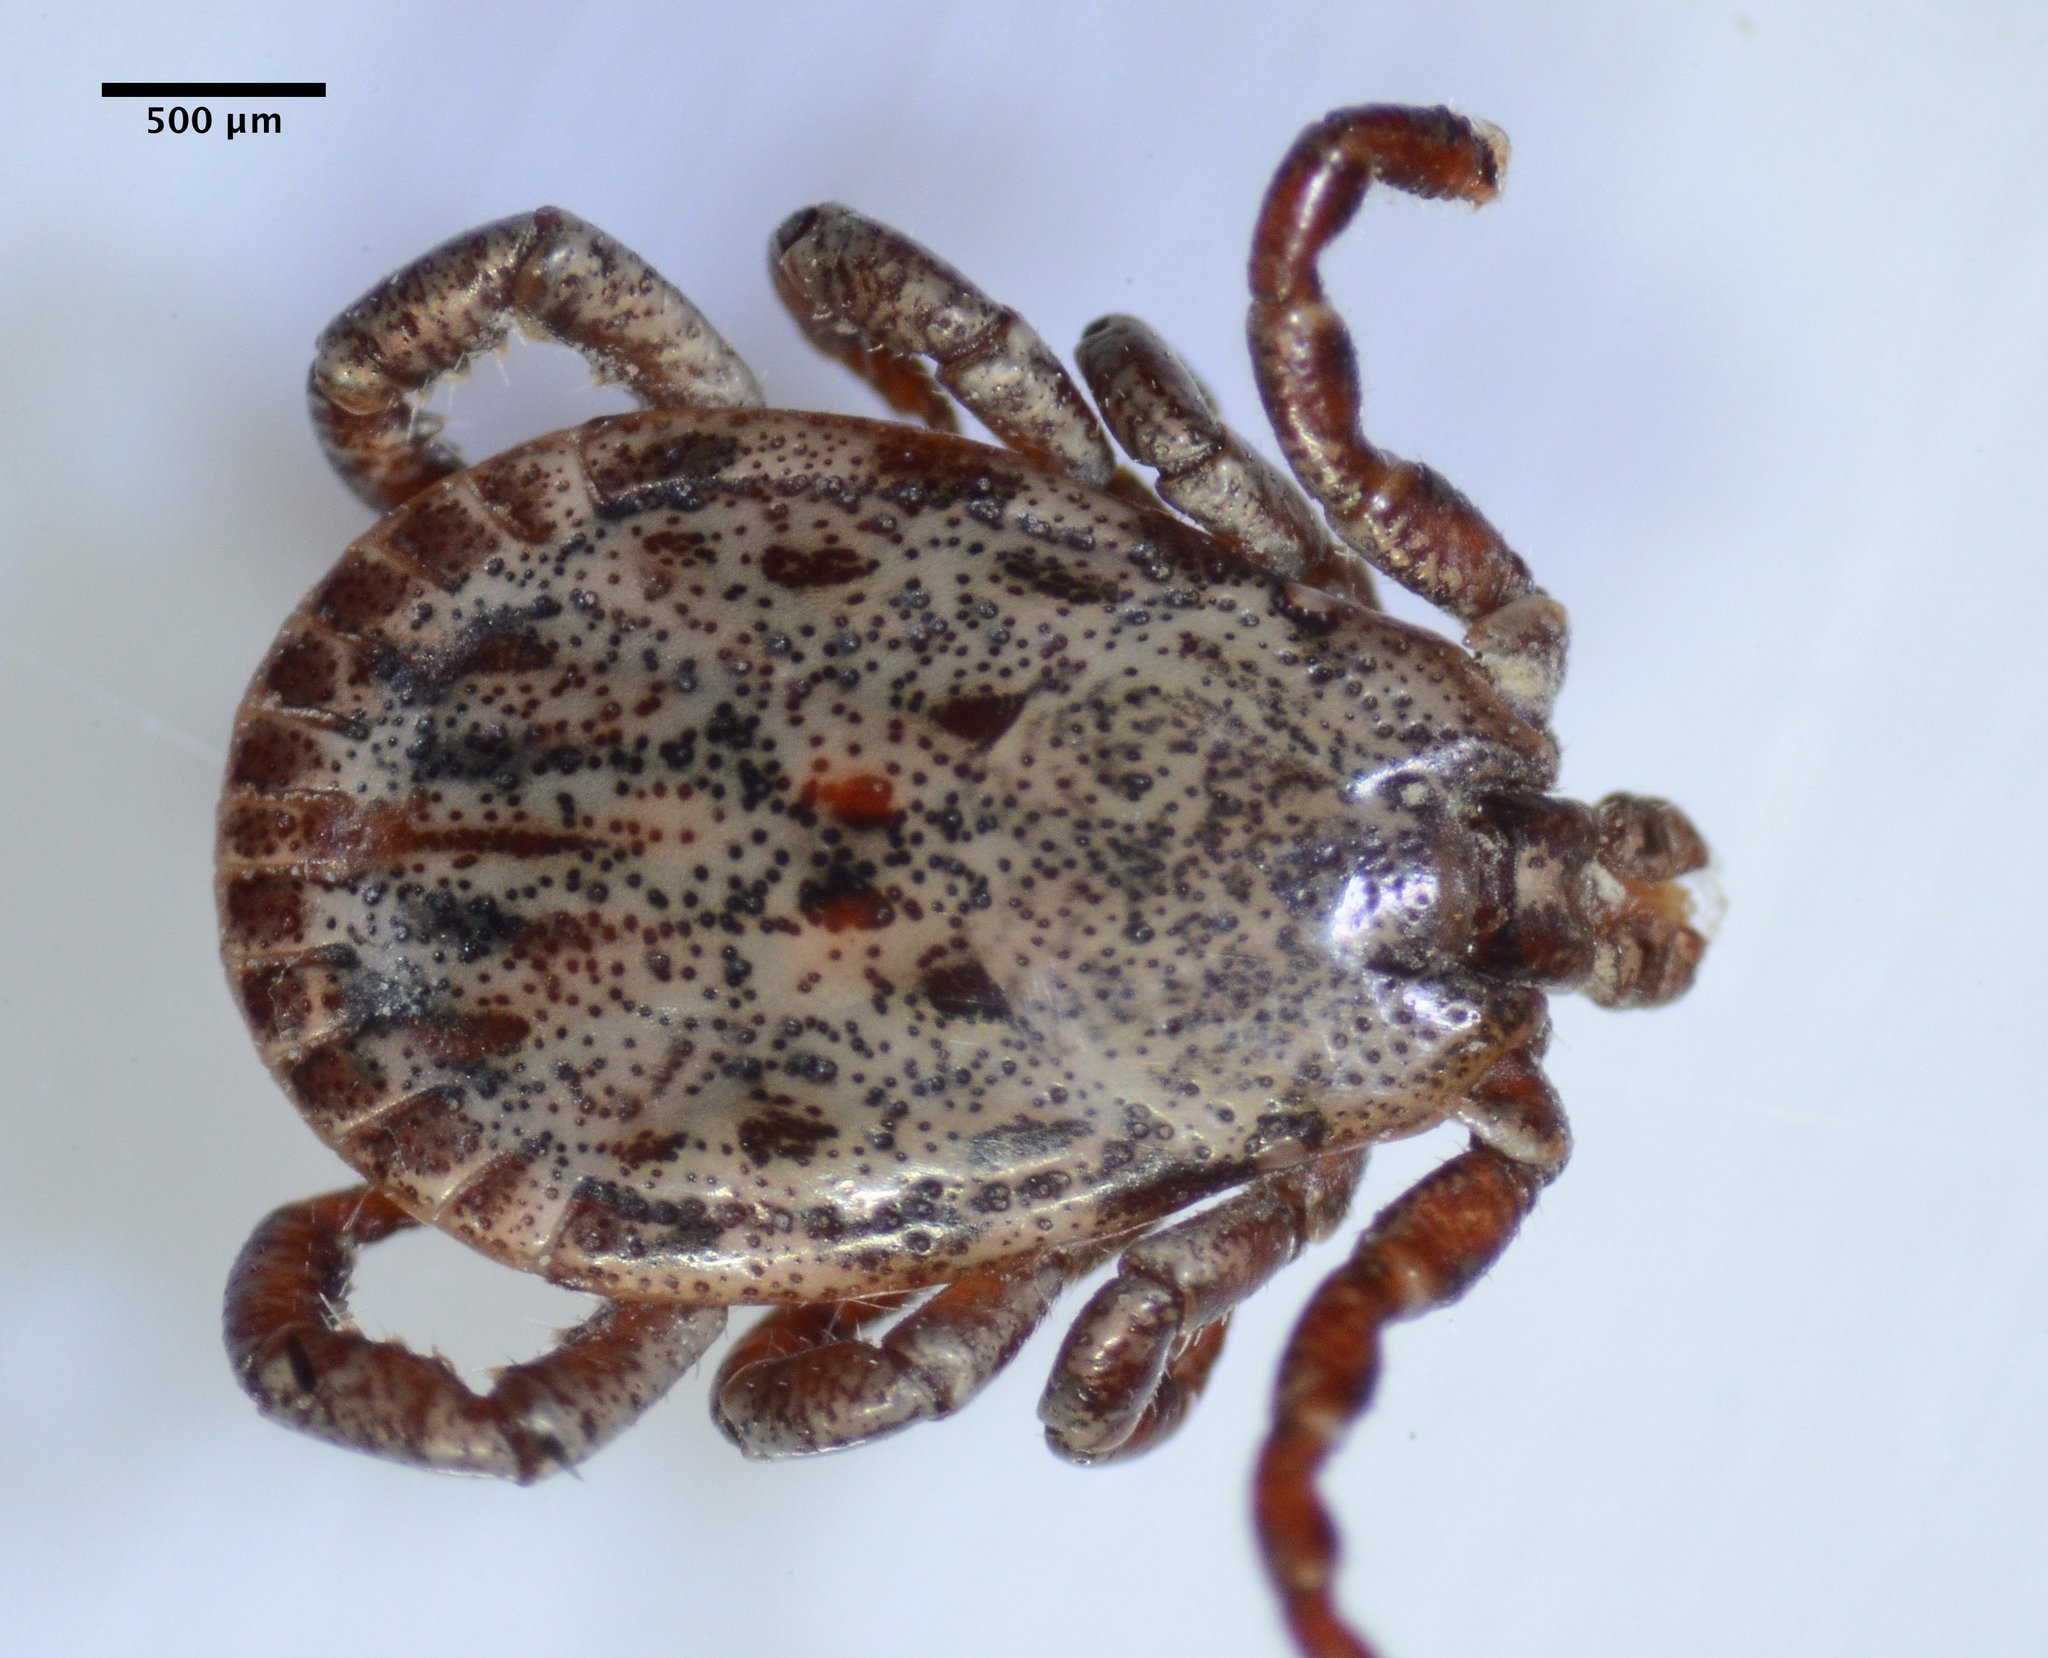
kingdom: Animalia
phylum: Arthropoda
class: Arachnida
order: Ixodida
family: Ixodidae
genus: Dermacentor
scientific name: Dermacentor occidentalis
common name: Net tick
